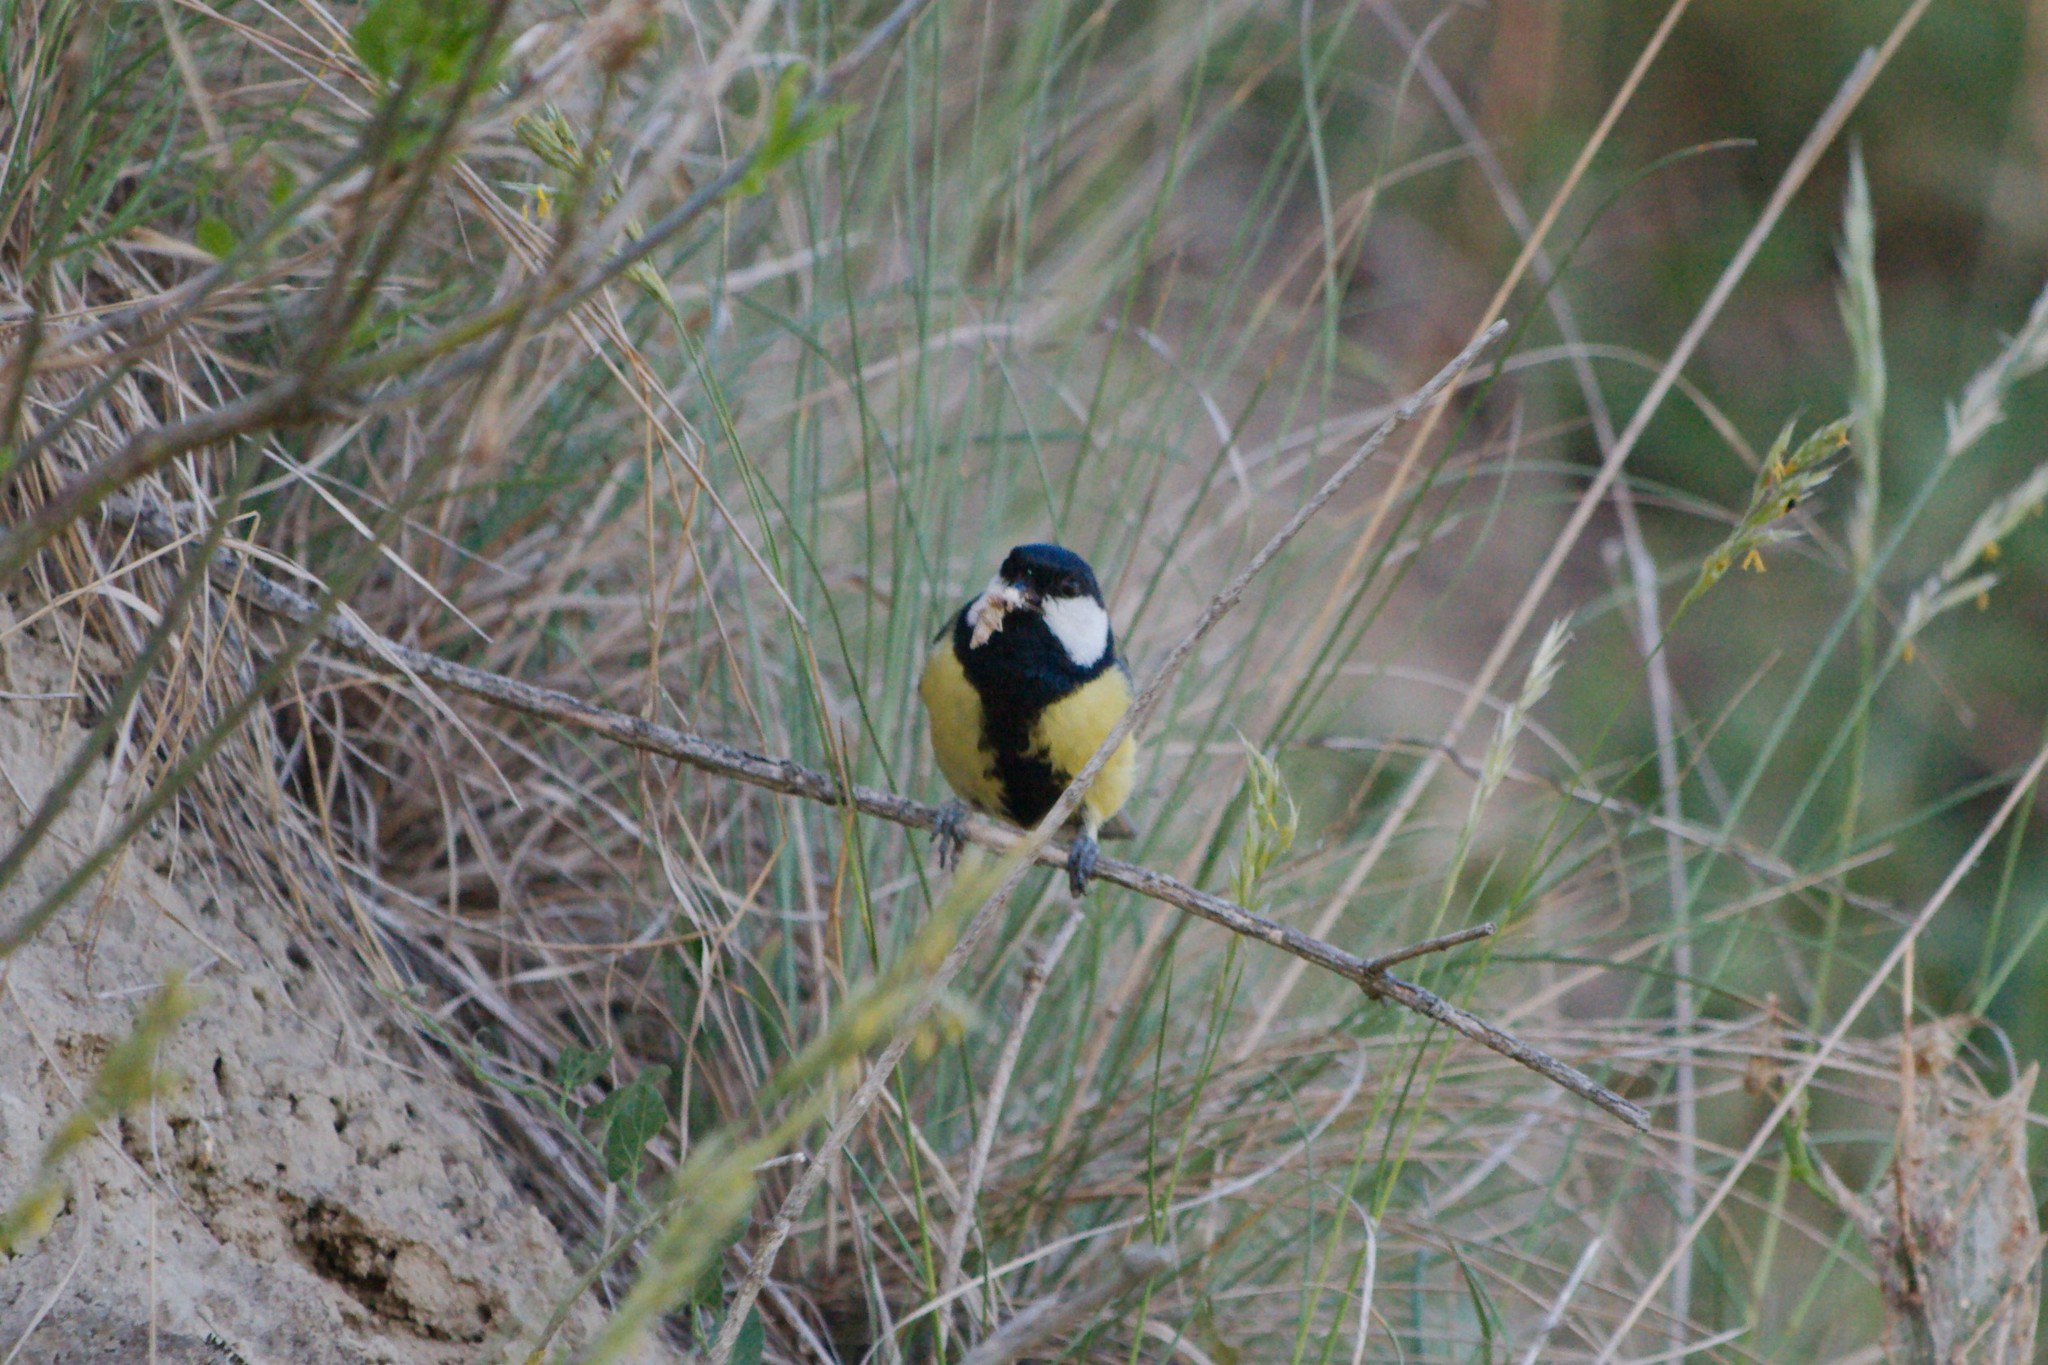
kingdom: Animalia
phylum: Chordata
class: Aves
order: Passeriformes
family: Paridae
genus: Parus
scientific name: Parus major
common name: Great tit
